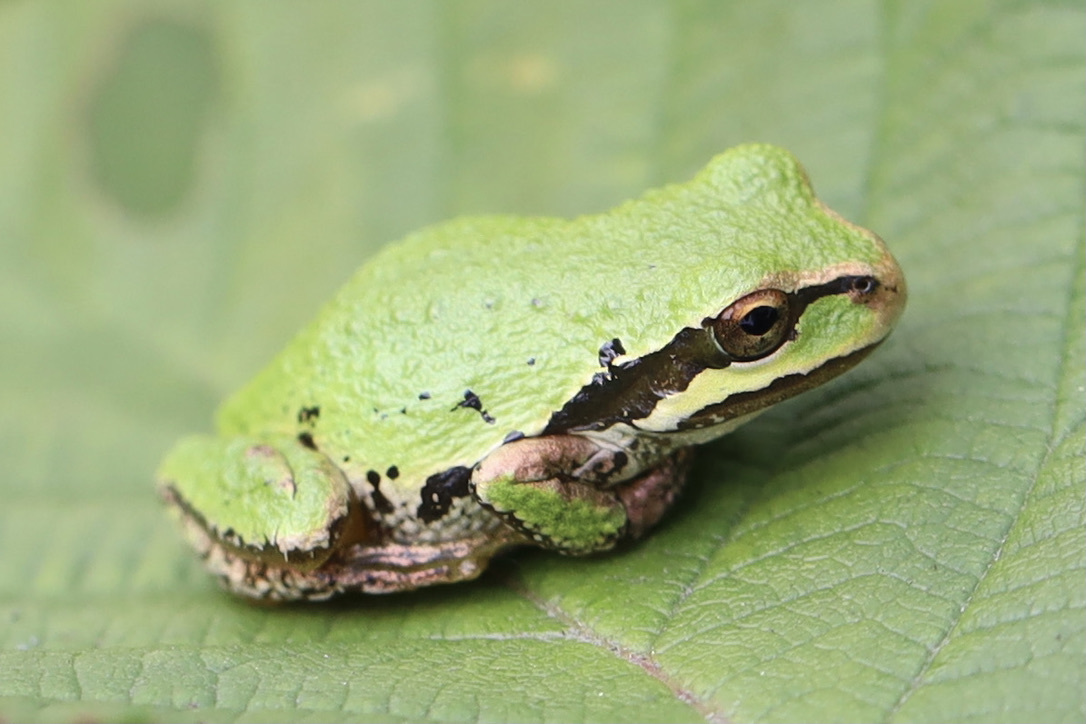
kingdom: Animalia
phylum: Chordata
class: Amphibia
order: Anura
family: Hylidae
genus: Pseudacris
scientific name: Pseudacris regilla
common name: Pacific chorus frog
